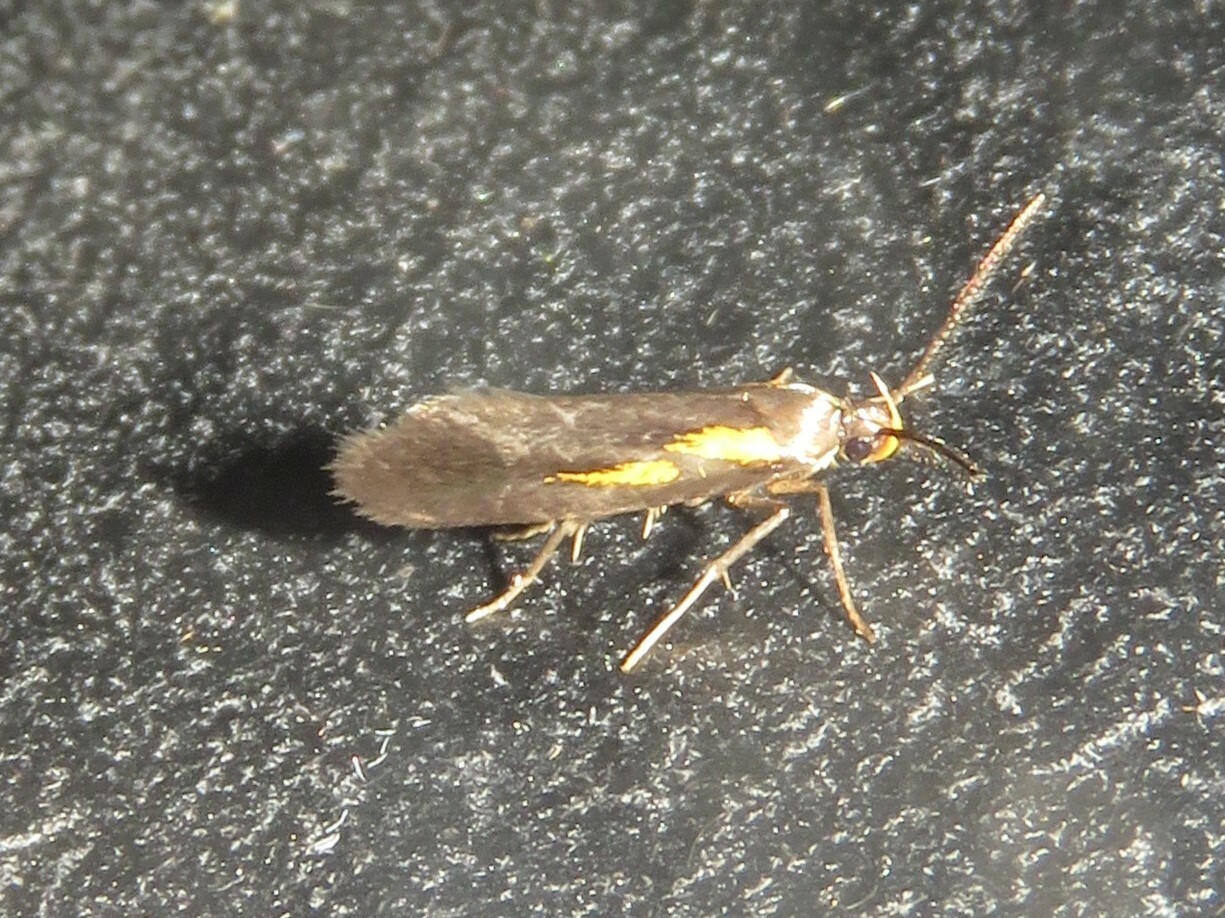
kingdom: Animalia
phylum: Arthropoda
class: Insecta
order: Lepidoptera
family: Oecophoridae
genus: Mathildana
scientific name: Mathildana newmanella
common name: Newman's mathildana moth
